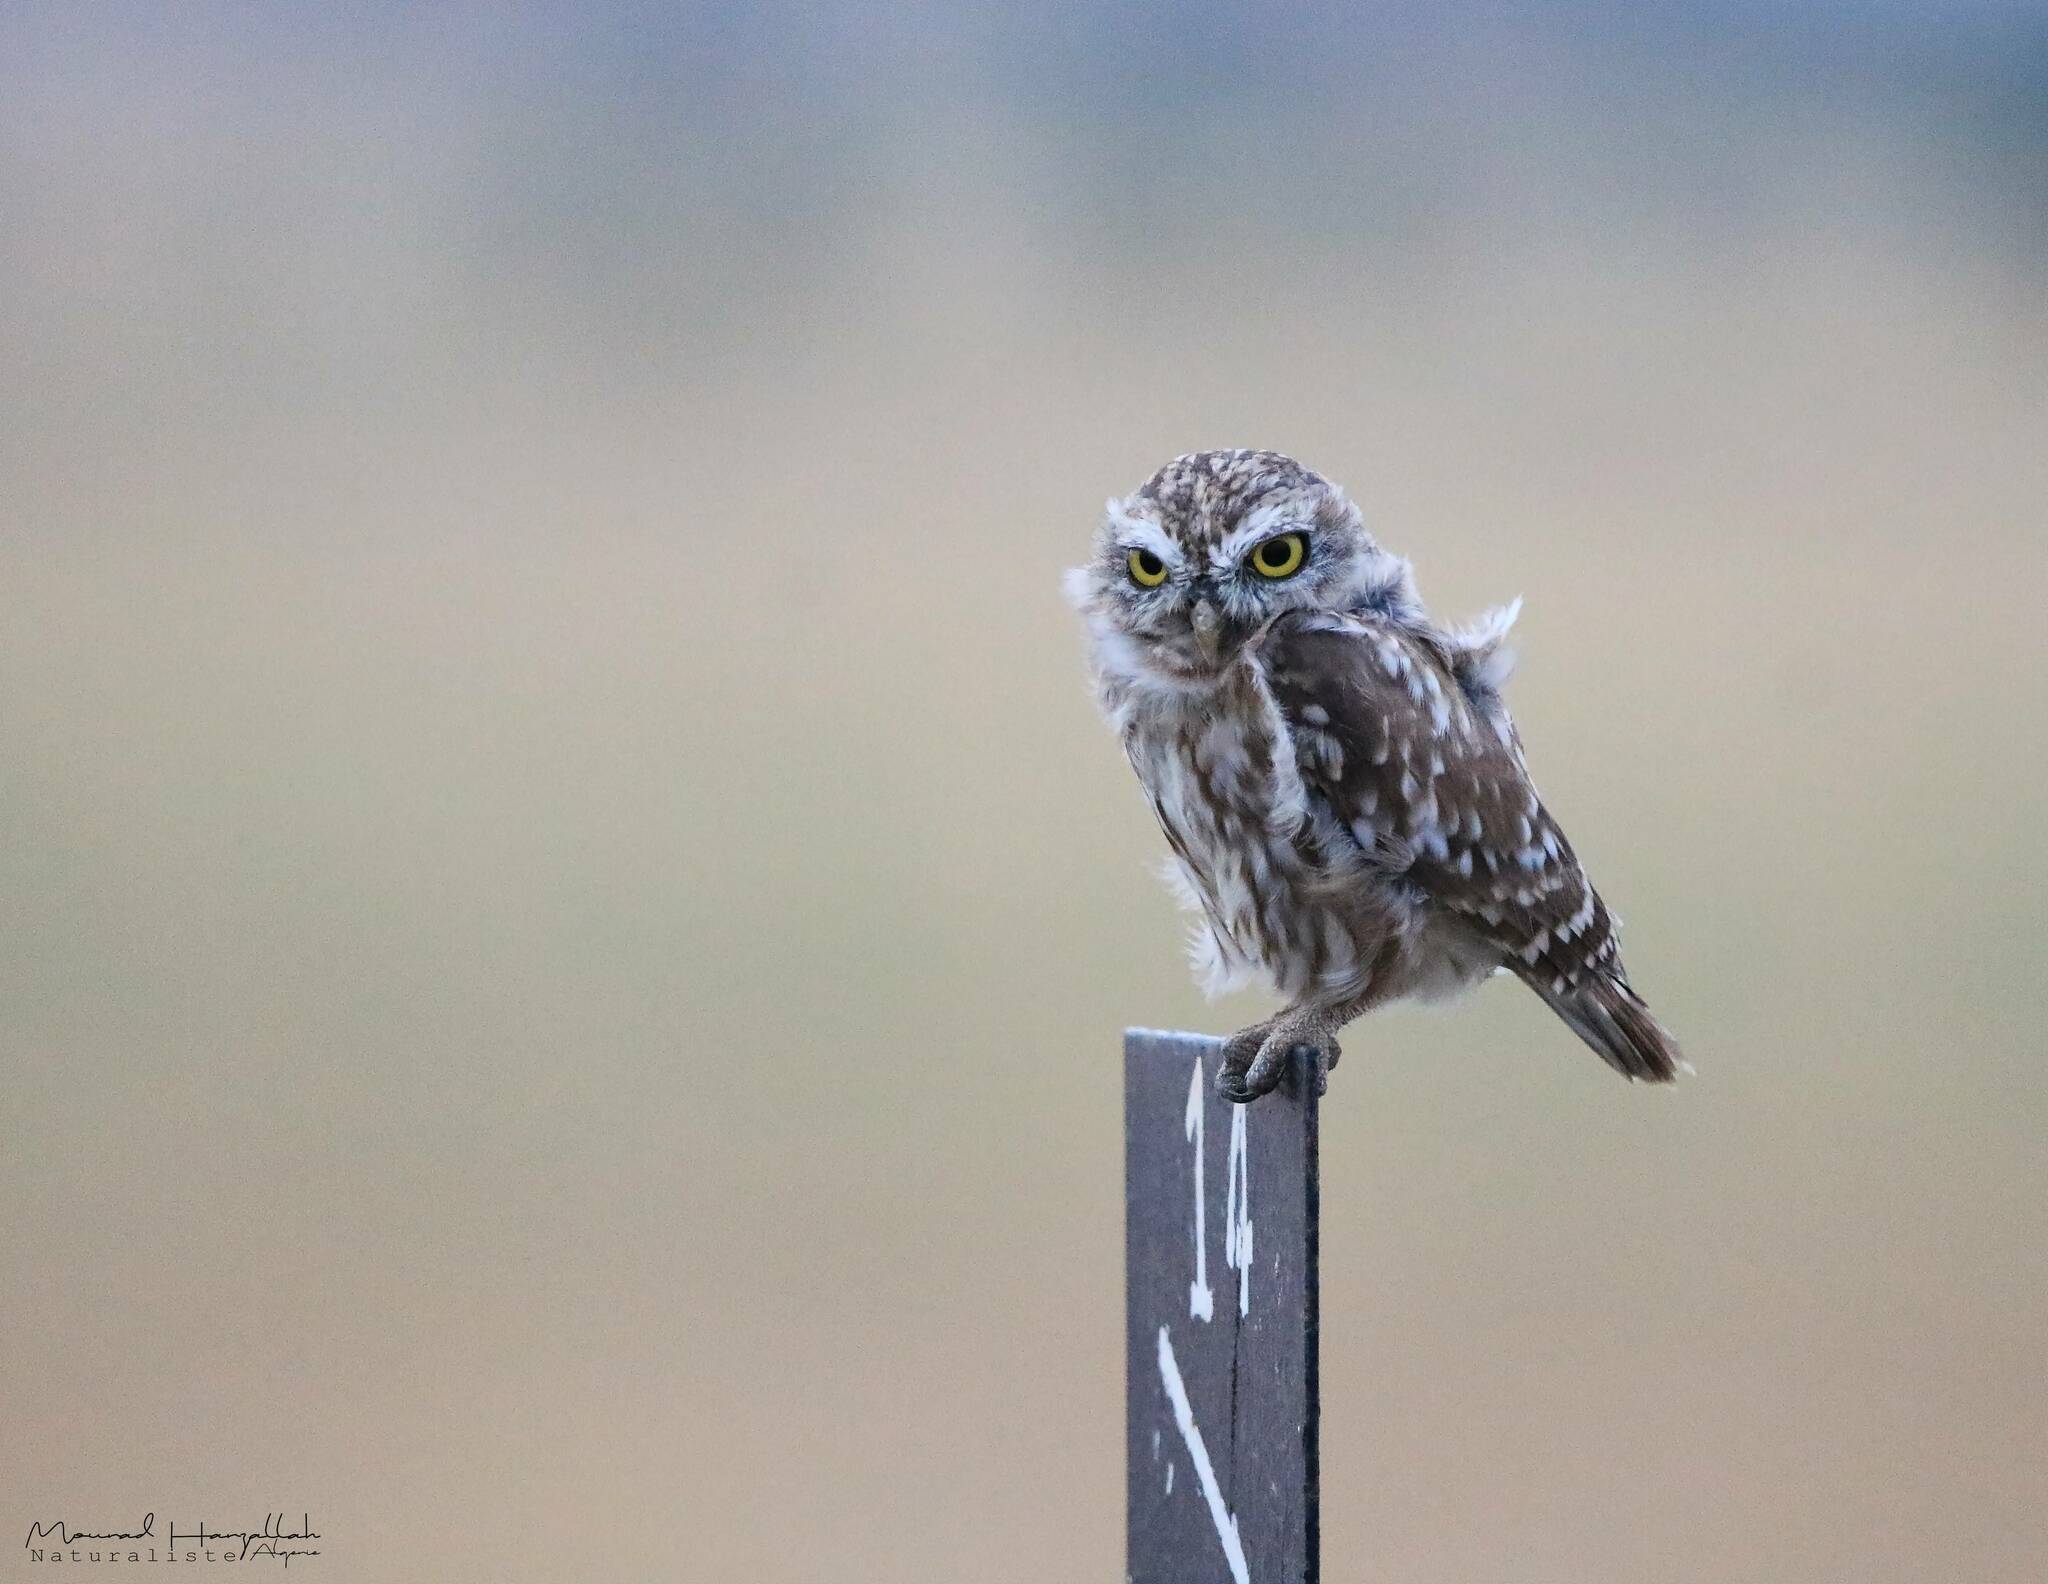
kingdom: Animalia
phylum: Chordata
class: Aves
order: Strigiformes
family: Strigidae
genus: Athene
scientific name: Athene noctua
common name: Little owl
